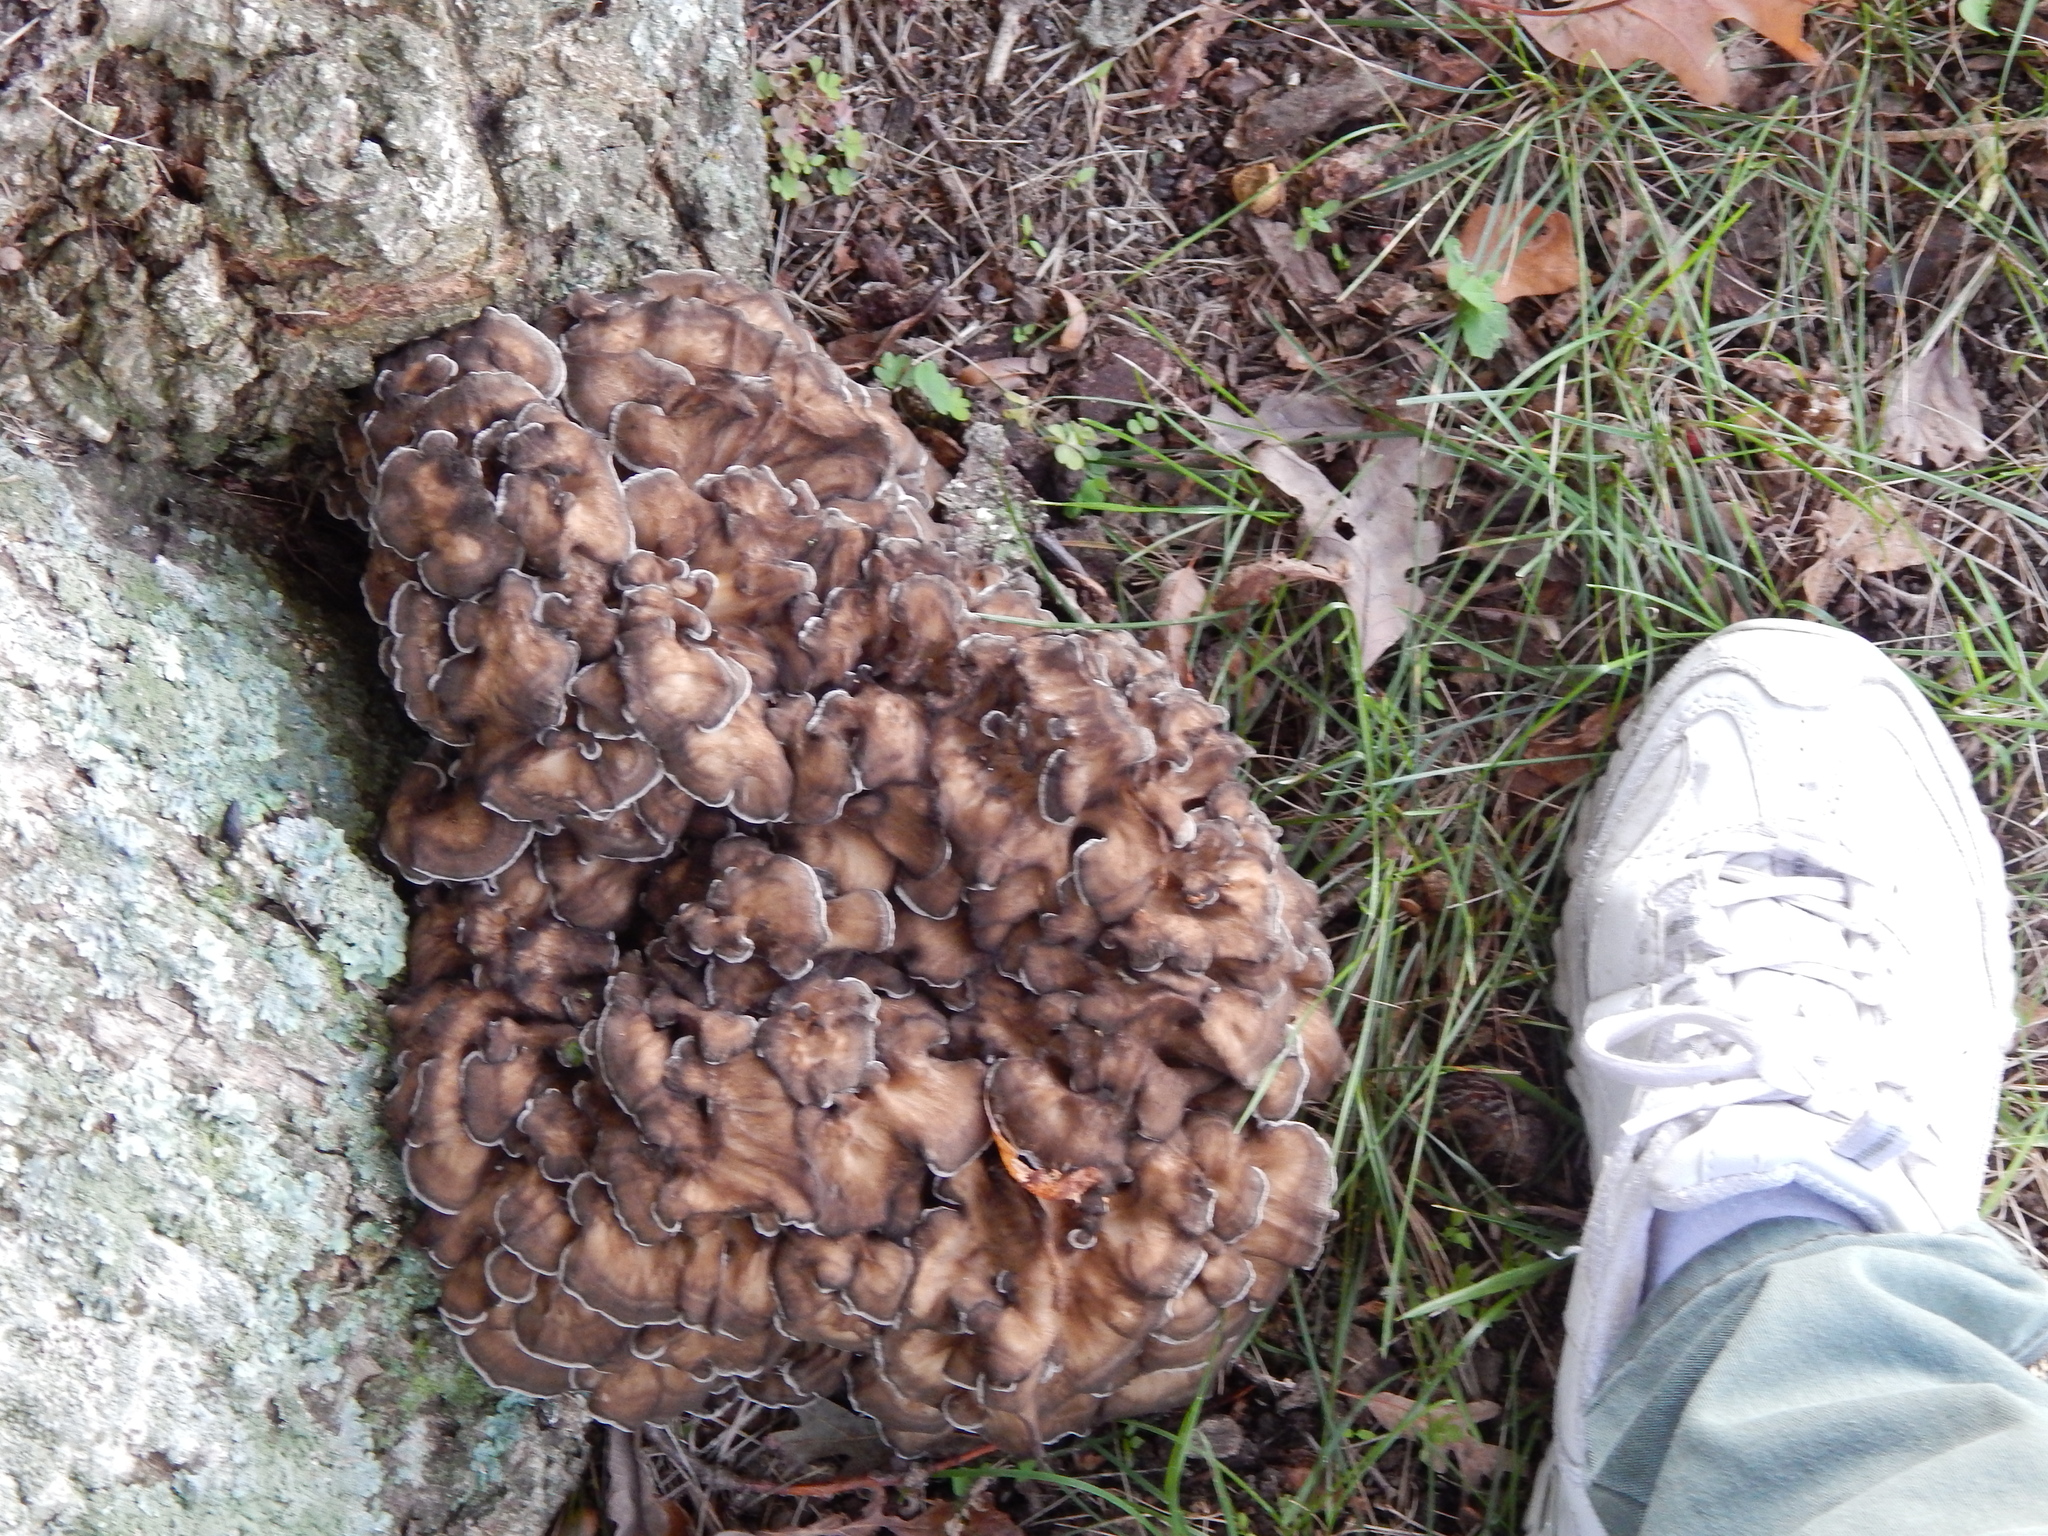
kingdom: Fungi
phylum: Basidiomycota
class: Agaricomycetes
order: Polyporales
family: Grifolaceae
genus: Grifola
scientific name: Grifola frondosa
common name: Hen of the woods
